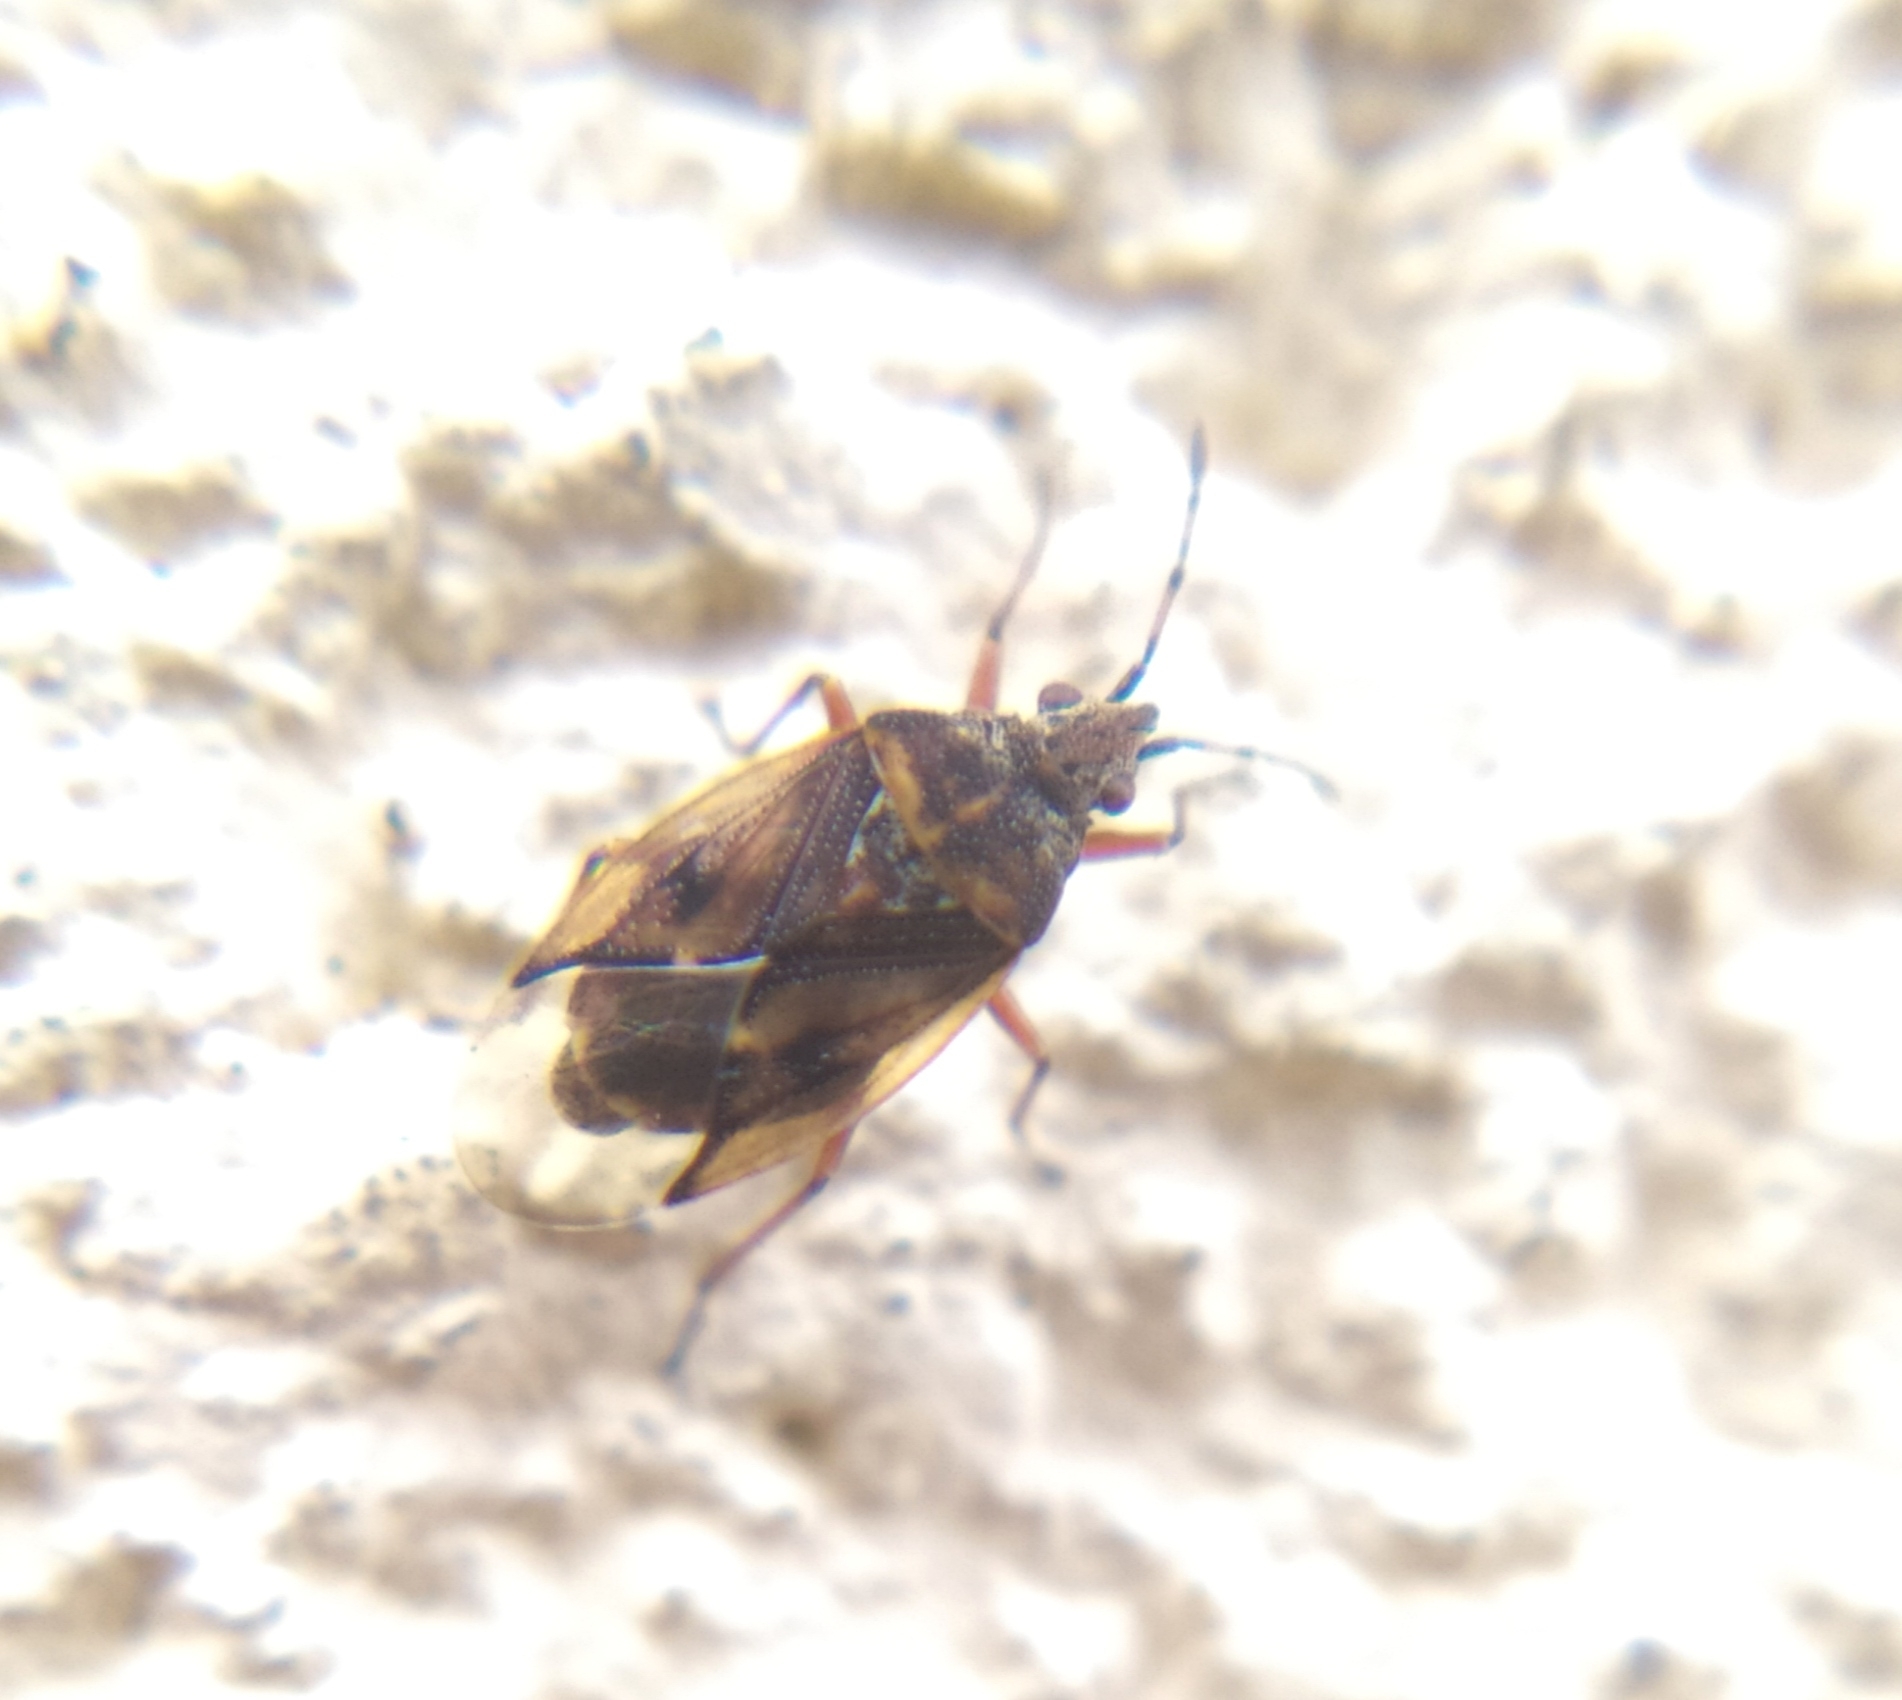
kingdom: Animalia
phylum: Arthropoda
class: Insecta
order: Hemiptera
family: Lygaeidae
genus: Kleidocerys
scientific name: Kleidocerys resedae
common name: Birch catkin bug
